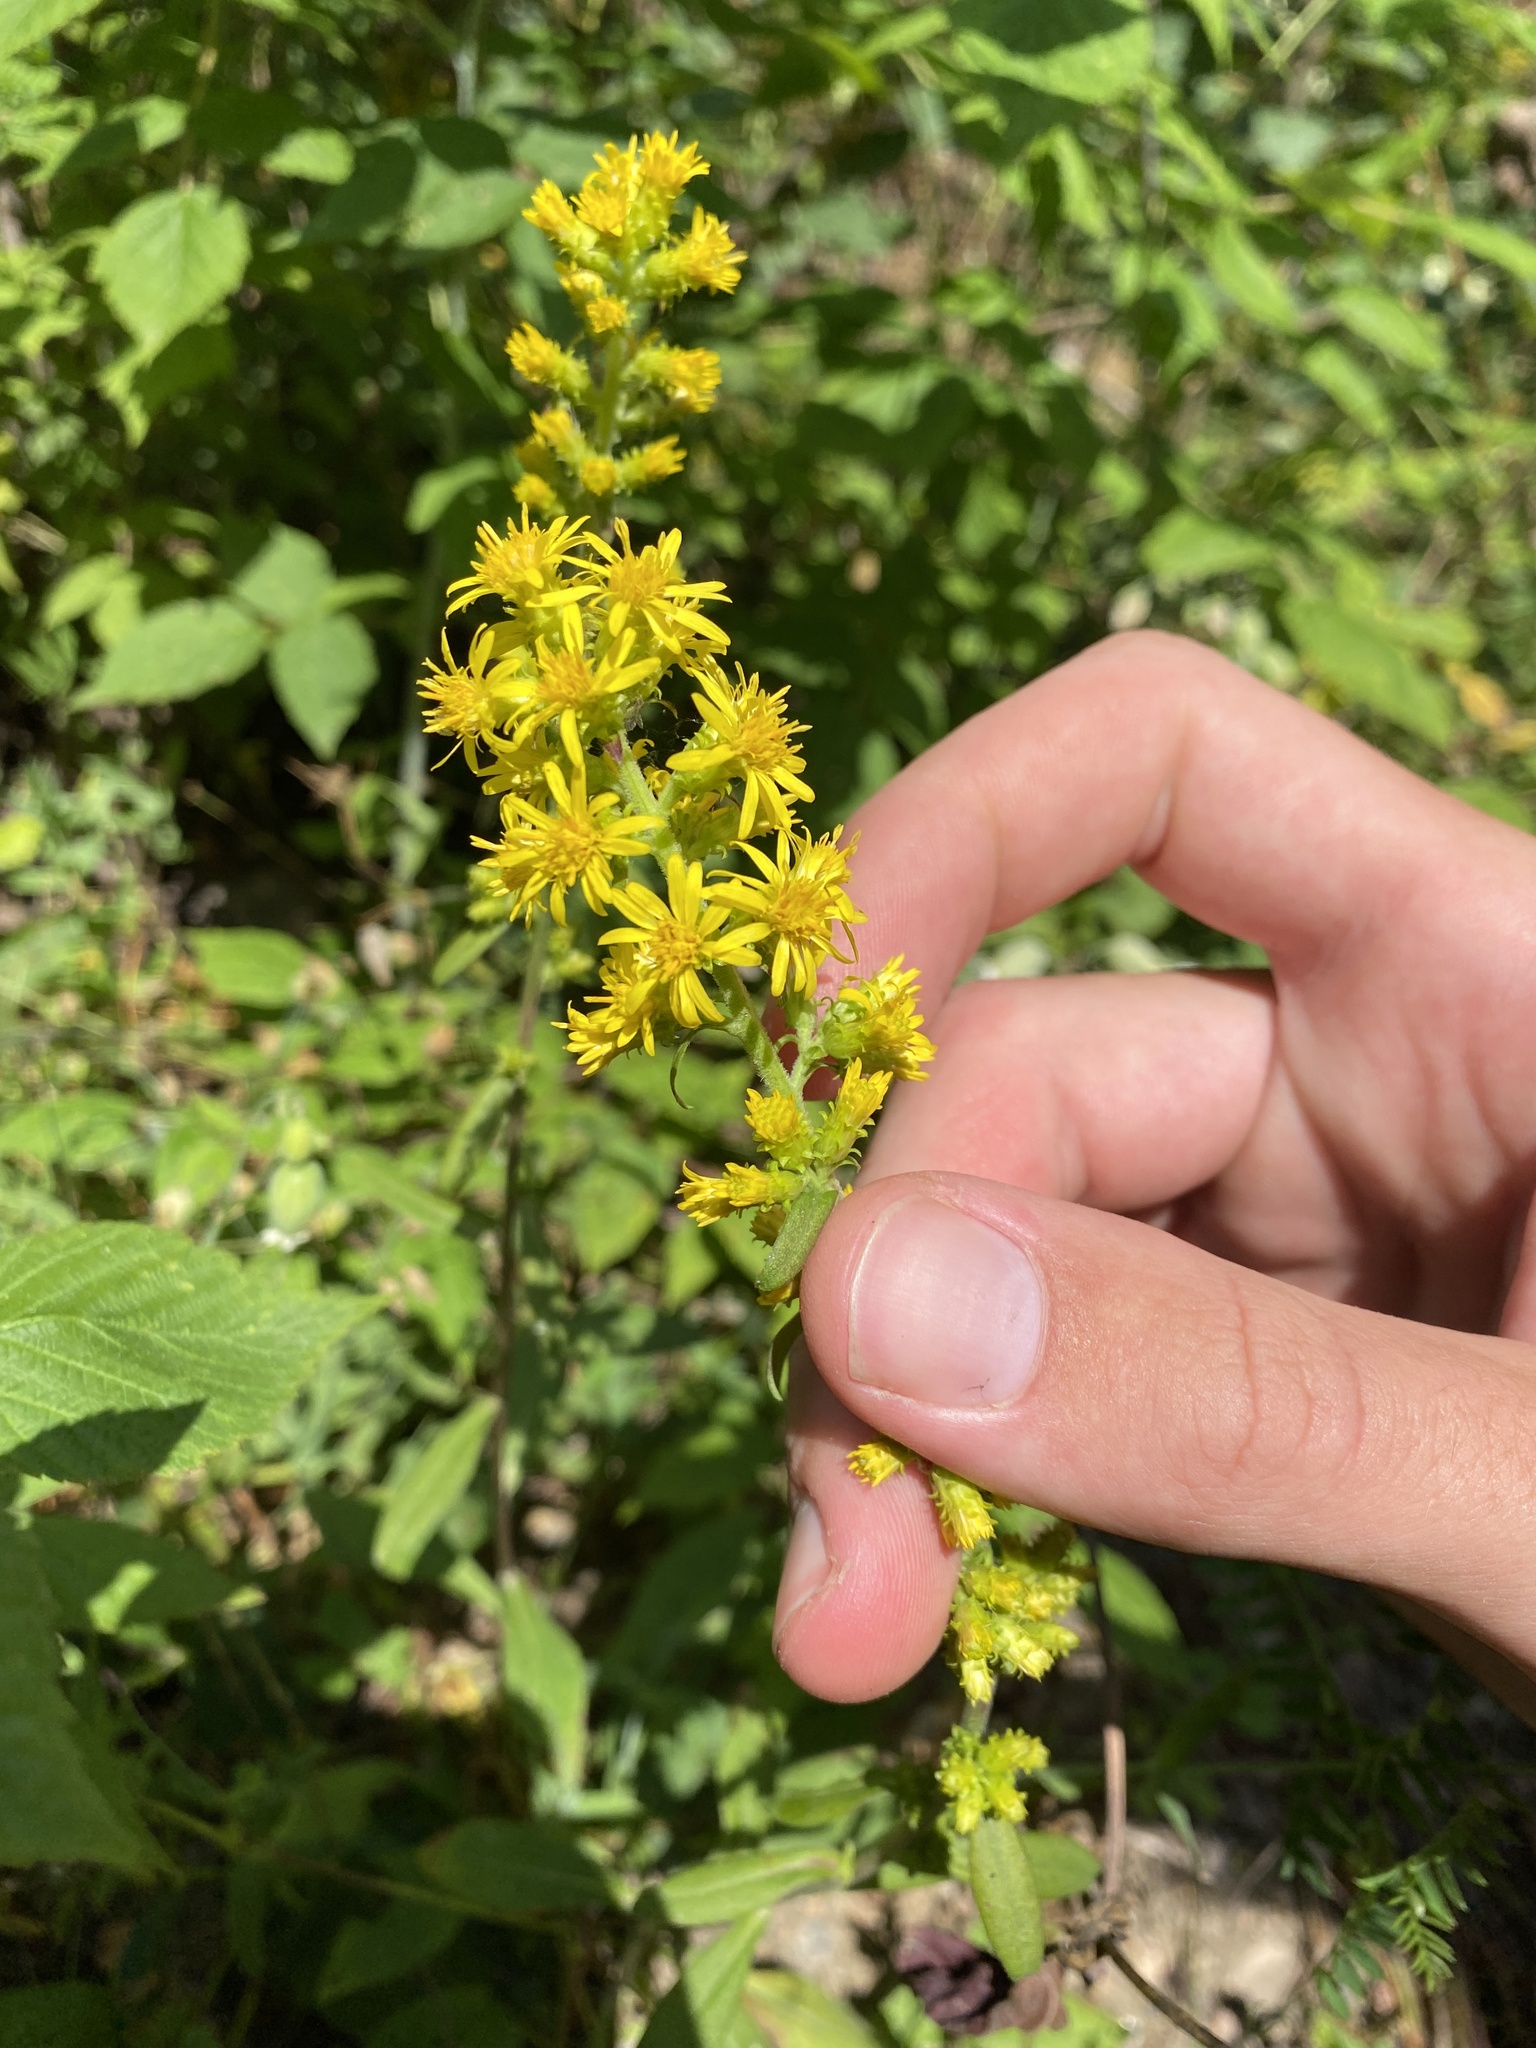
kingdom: Plantae
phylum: Tracheophyta
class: Magnoliopsida
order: Asterales
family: Asteraceae
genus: Solidago
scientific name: Solidago squarrosa
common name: Stout goldenrod
